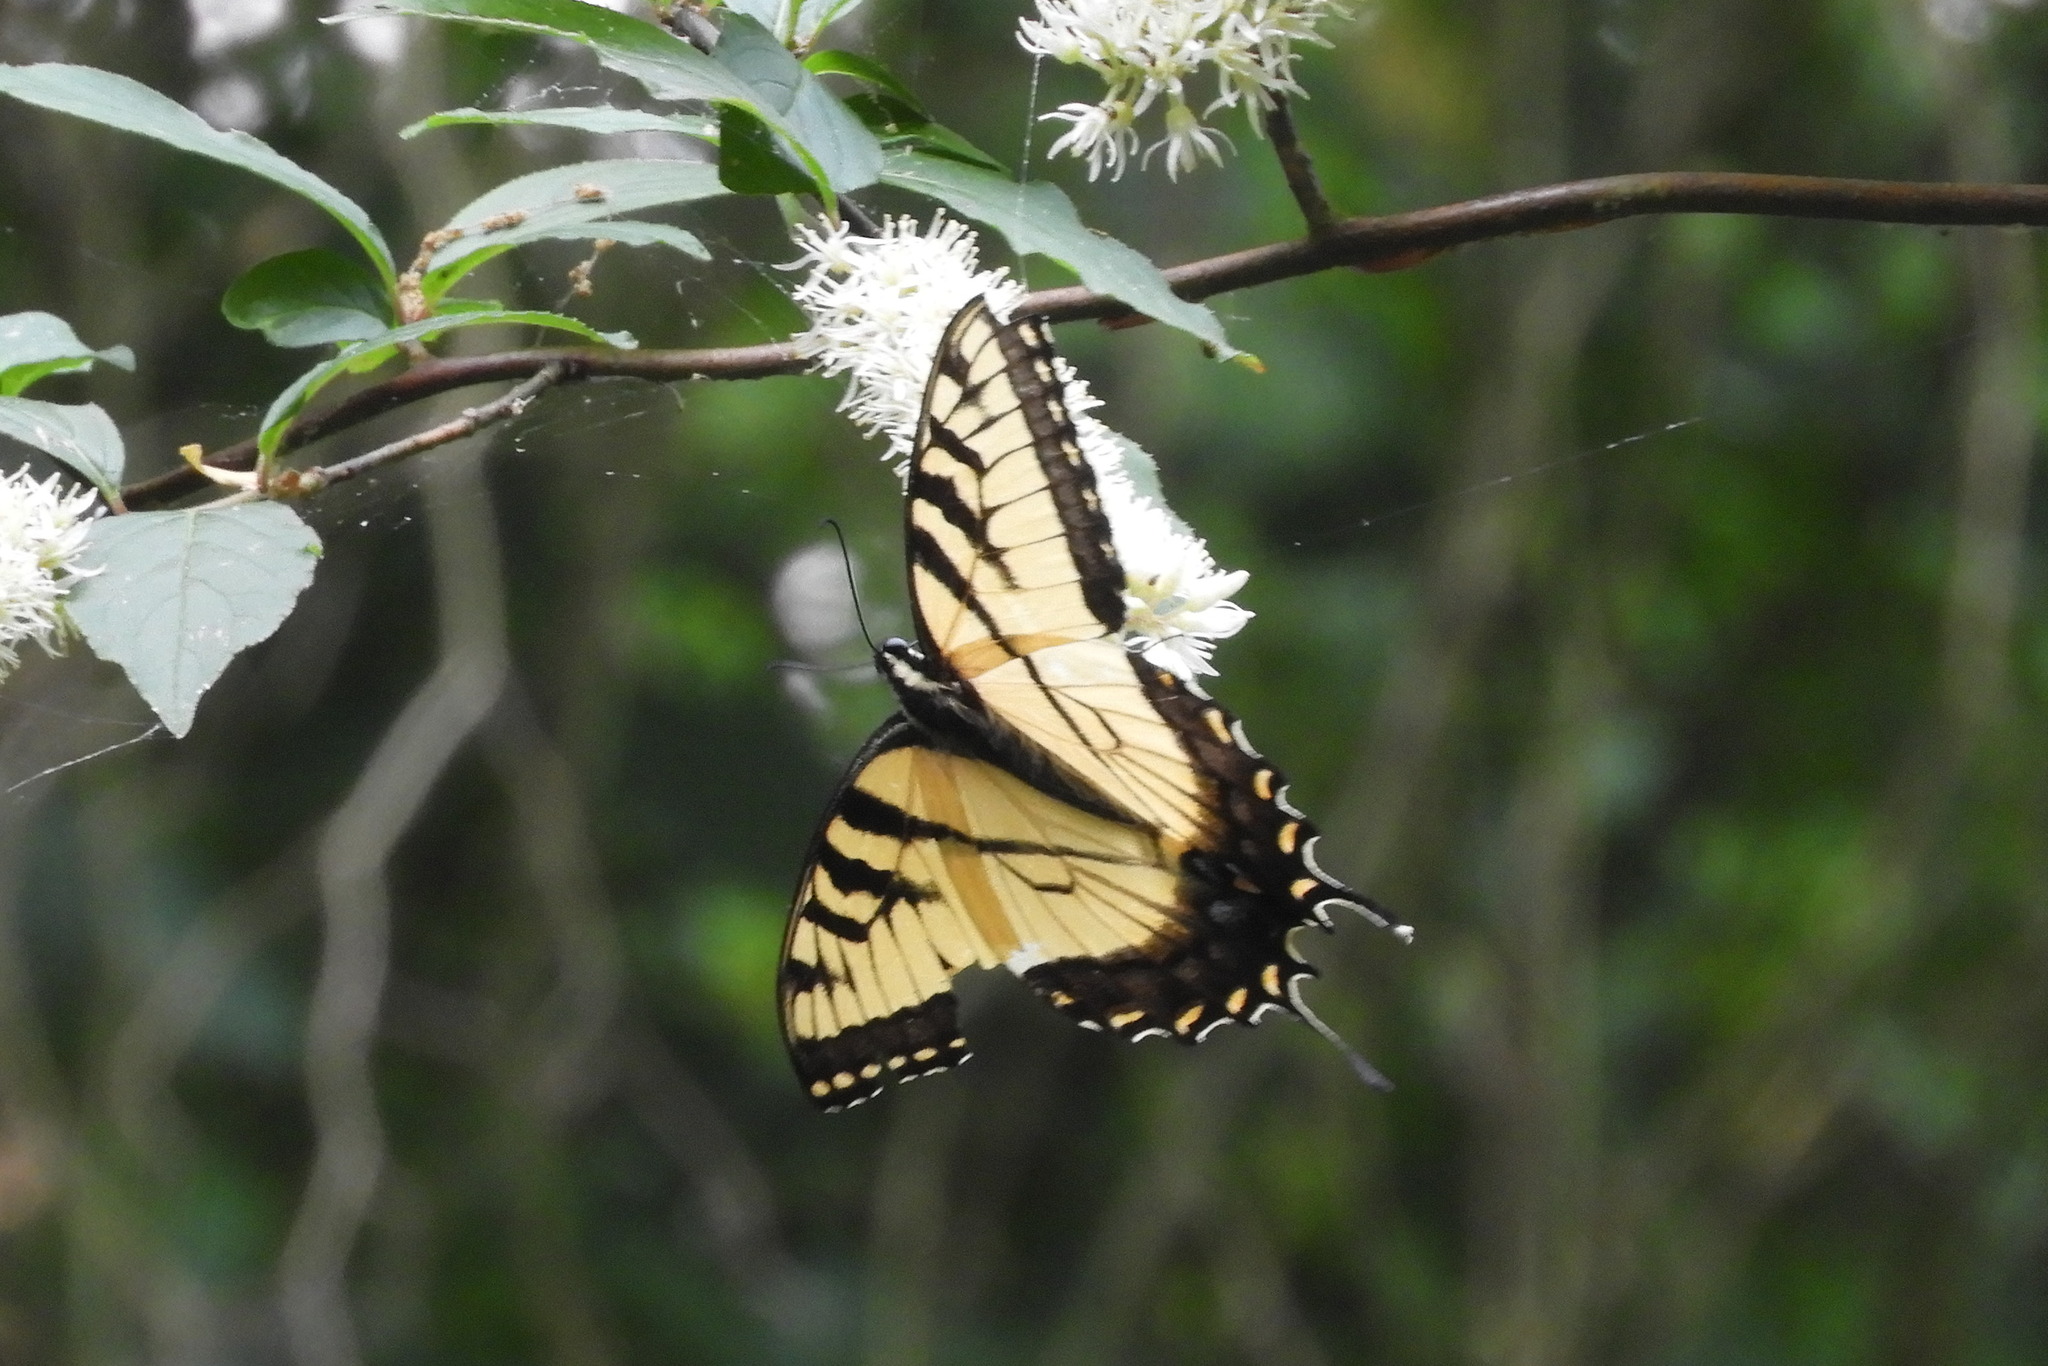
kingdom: Animalia
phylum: Arthropoda
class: Insecta
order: Lepidoptera
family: Papilionidae
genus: Papilio
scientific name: Papilio glaucus
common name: Tiger swallowtail
